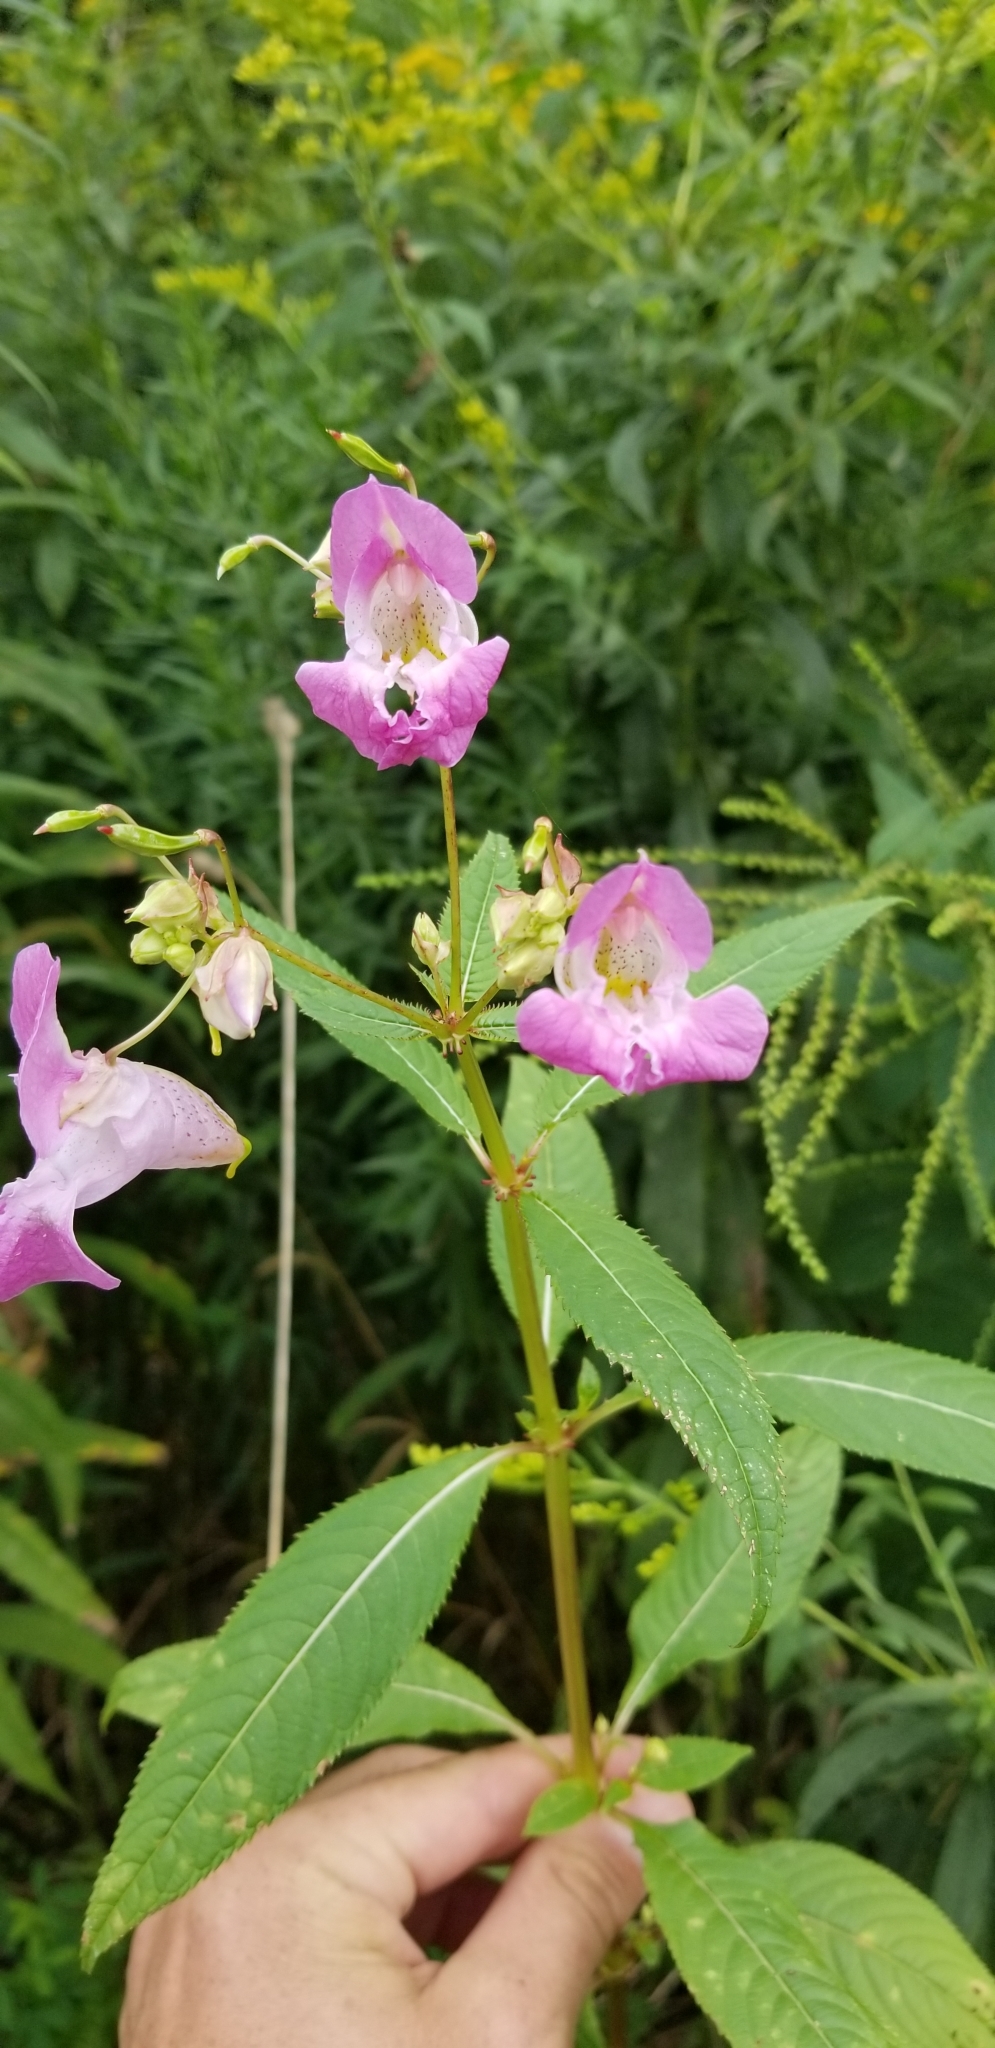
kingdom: Plantae
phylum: Tracheophyta
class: Magnoliopsida
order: Ericales
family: Balsaminaceae
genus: Impatiens
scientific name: Impatiens glandulifera
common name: Himalayan balsam
